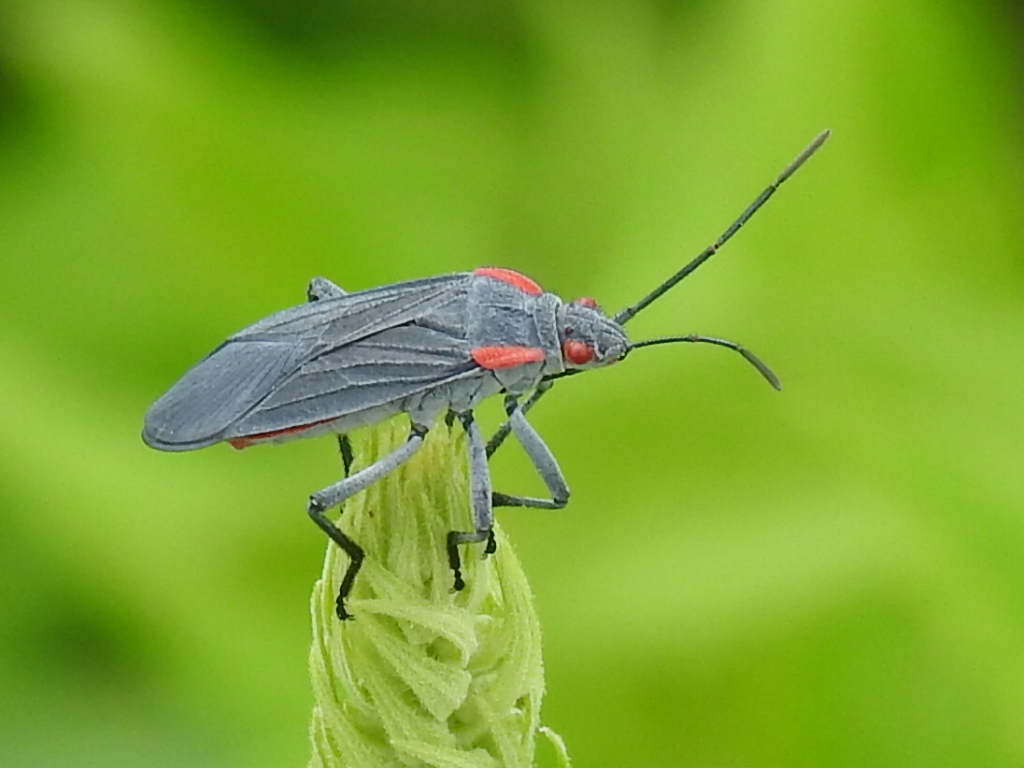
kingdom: Animalia
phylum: Arthropoda
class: Insecta
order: Hemiptera
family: Rhopalidae
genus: Jadera
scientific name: Jadera haematoloma
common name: Red-shouldered bug
